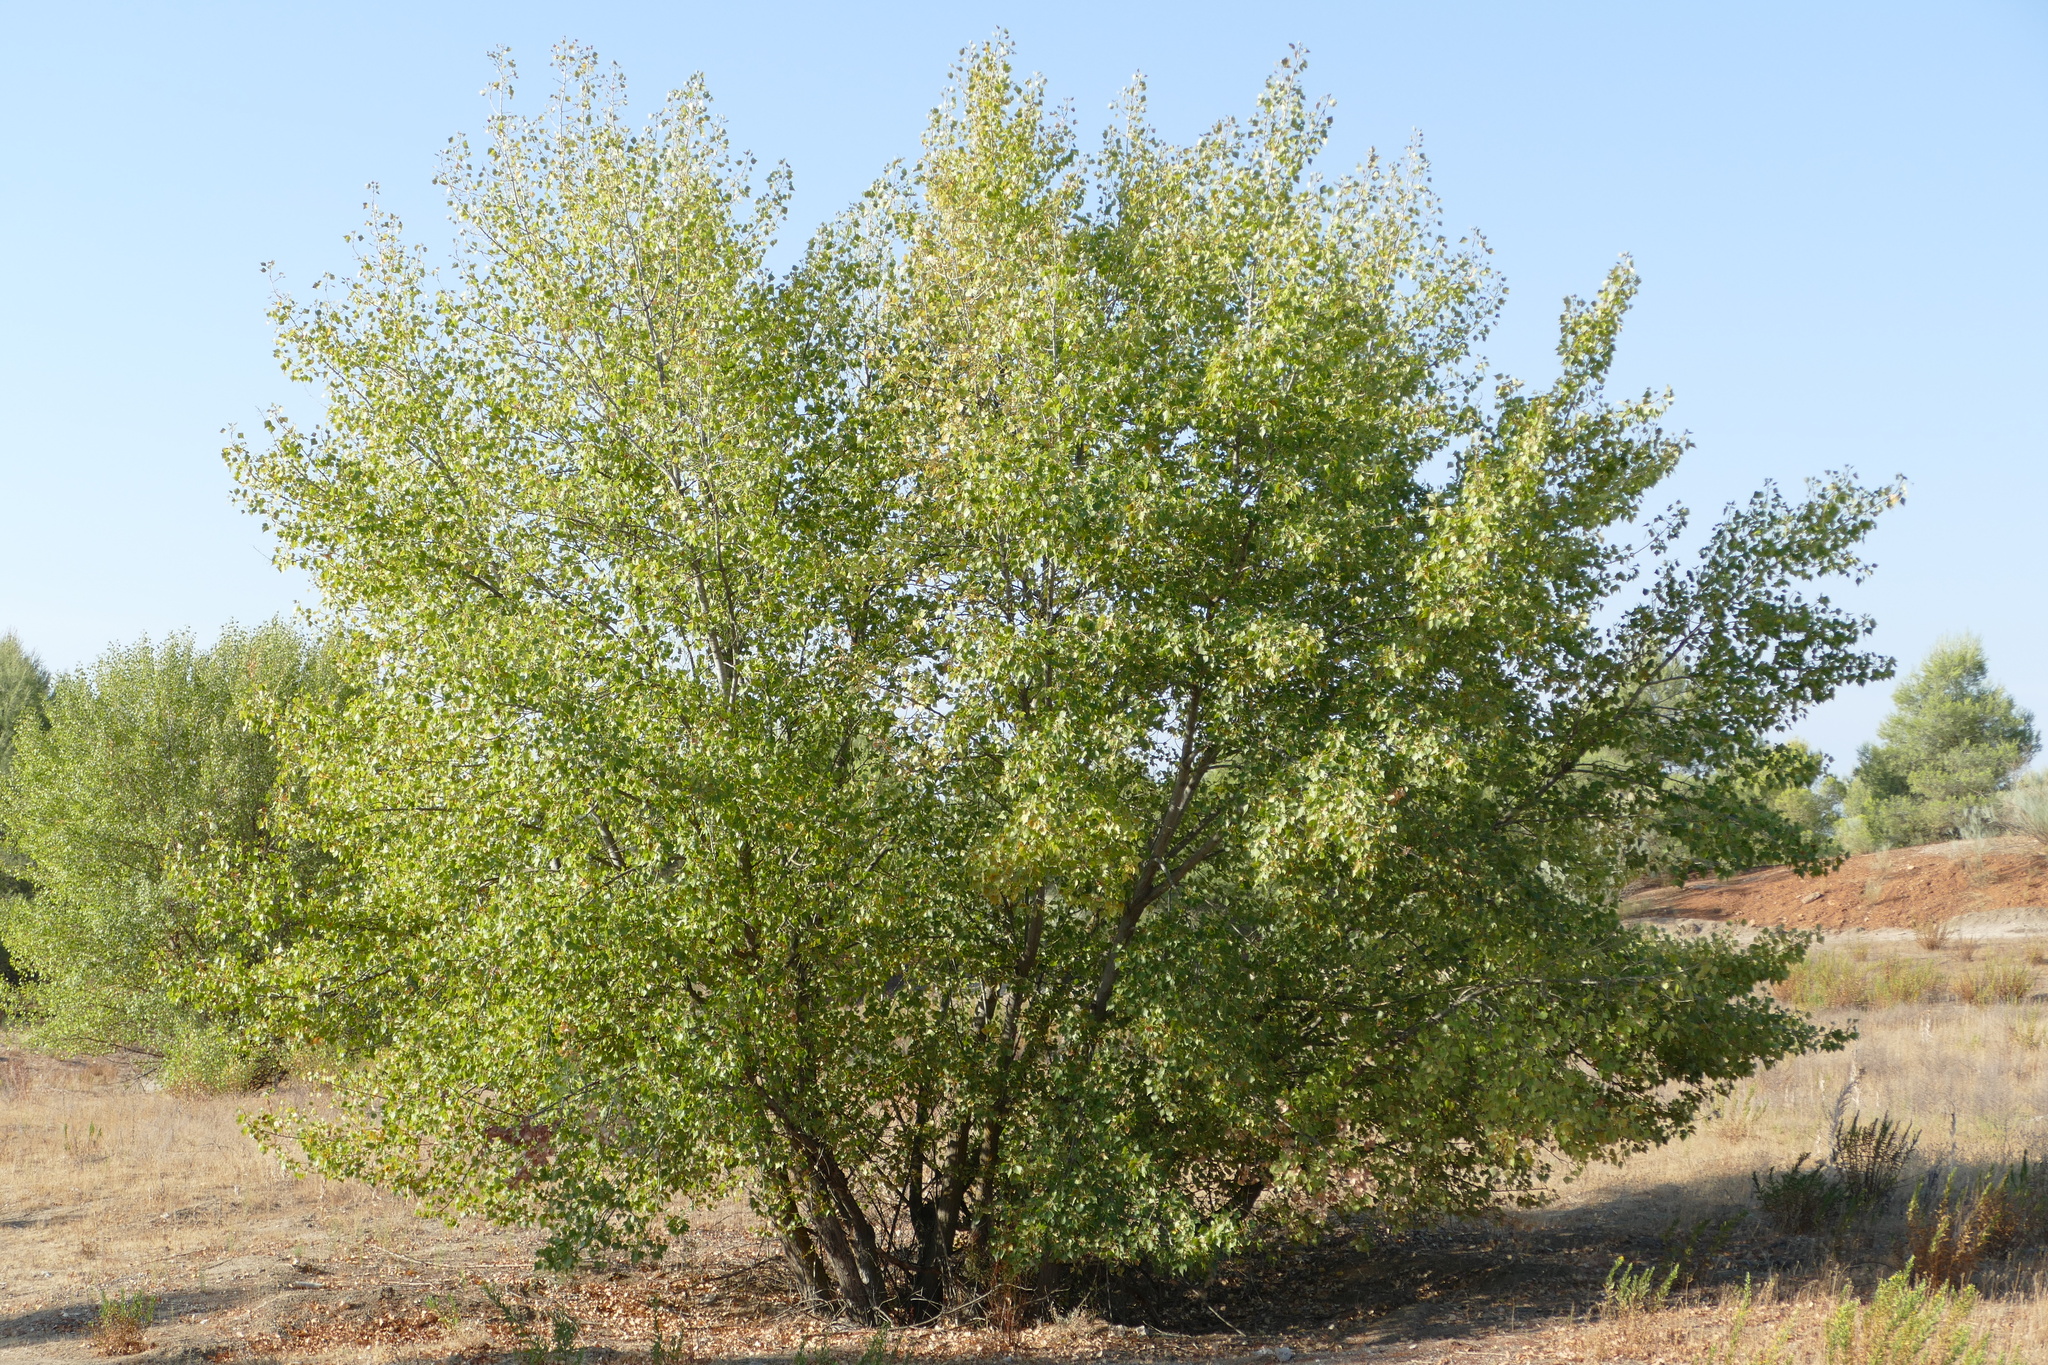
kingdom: Plantae
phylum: Tracheophyta
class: Magnoliopsida
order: Malpighiales
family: Salicaceae
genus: Populus
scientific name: Populus nigra
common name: Black poplar
